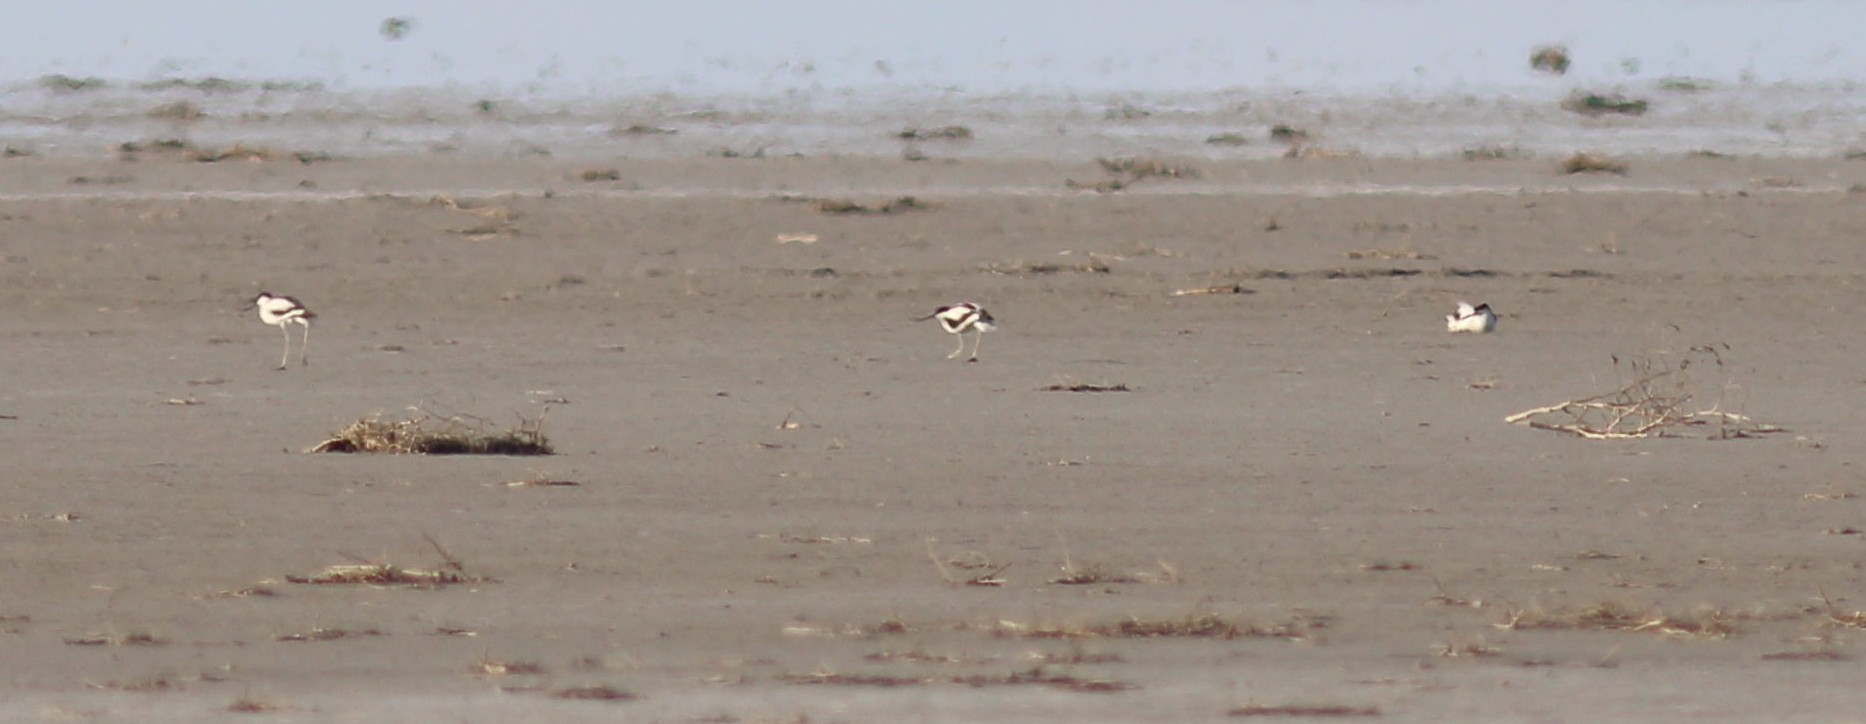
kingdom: Animalia
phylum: Chordata
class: Aves
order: Charadriiformes
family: Recurvirostridae
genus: Recurvirostra
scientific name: Recurvirostra avosetta
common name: Pied avocet
